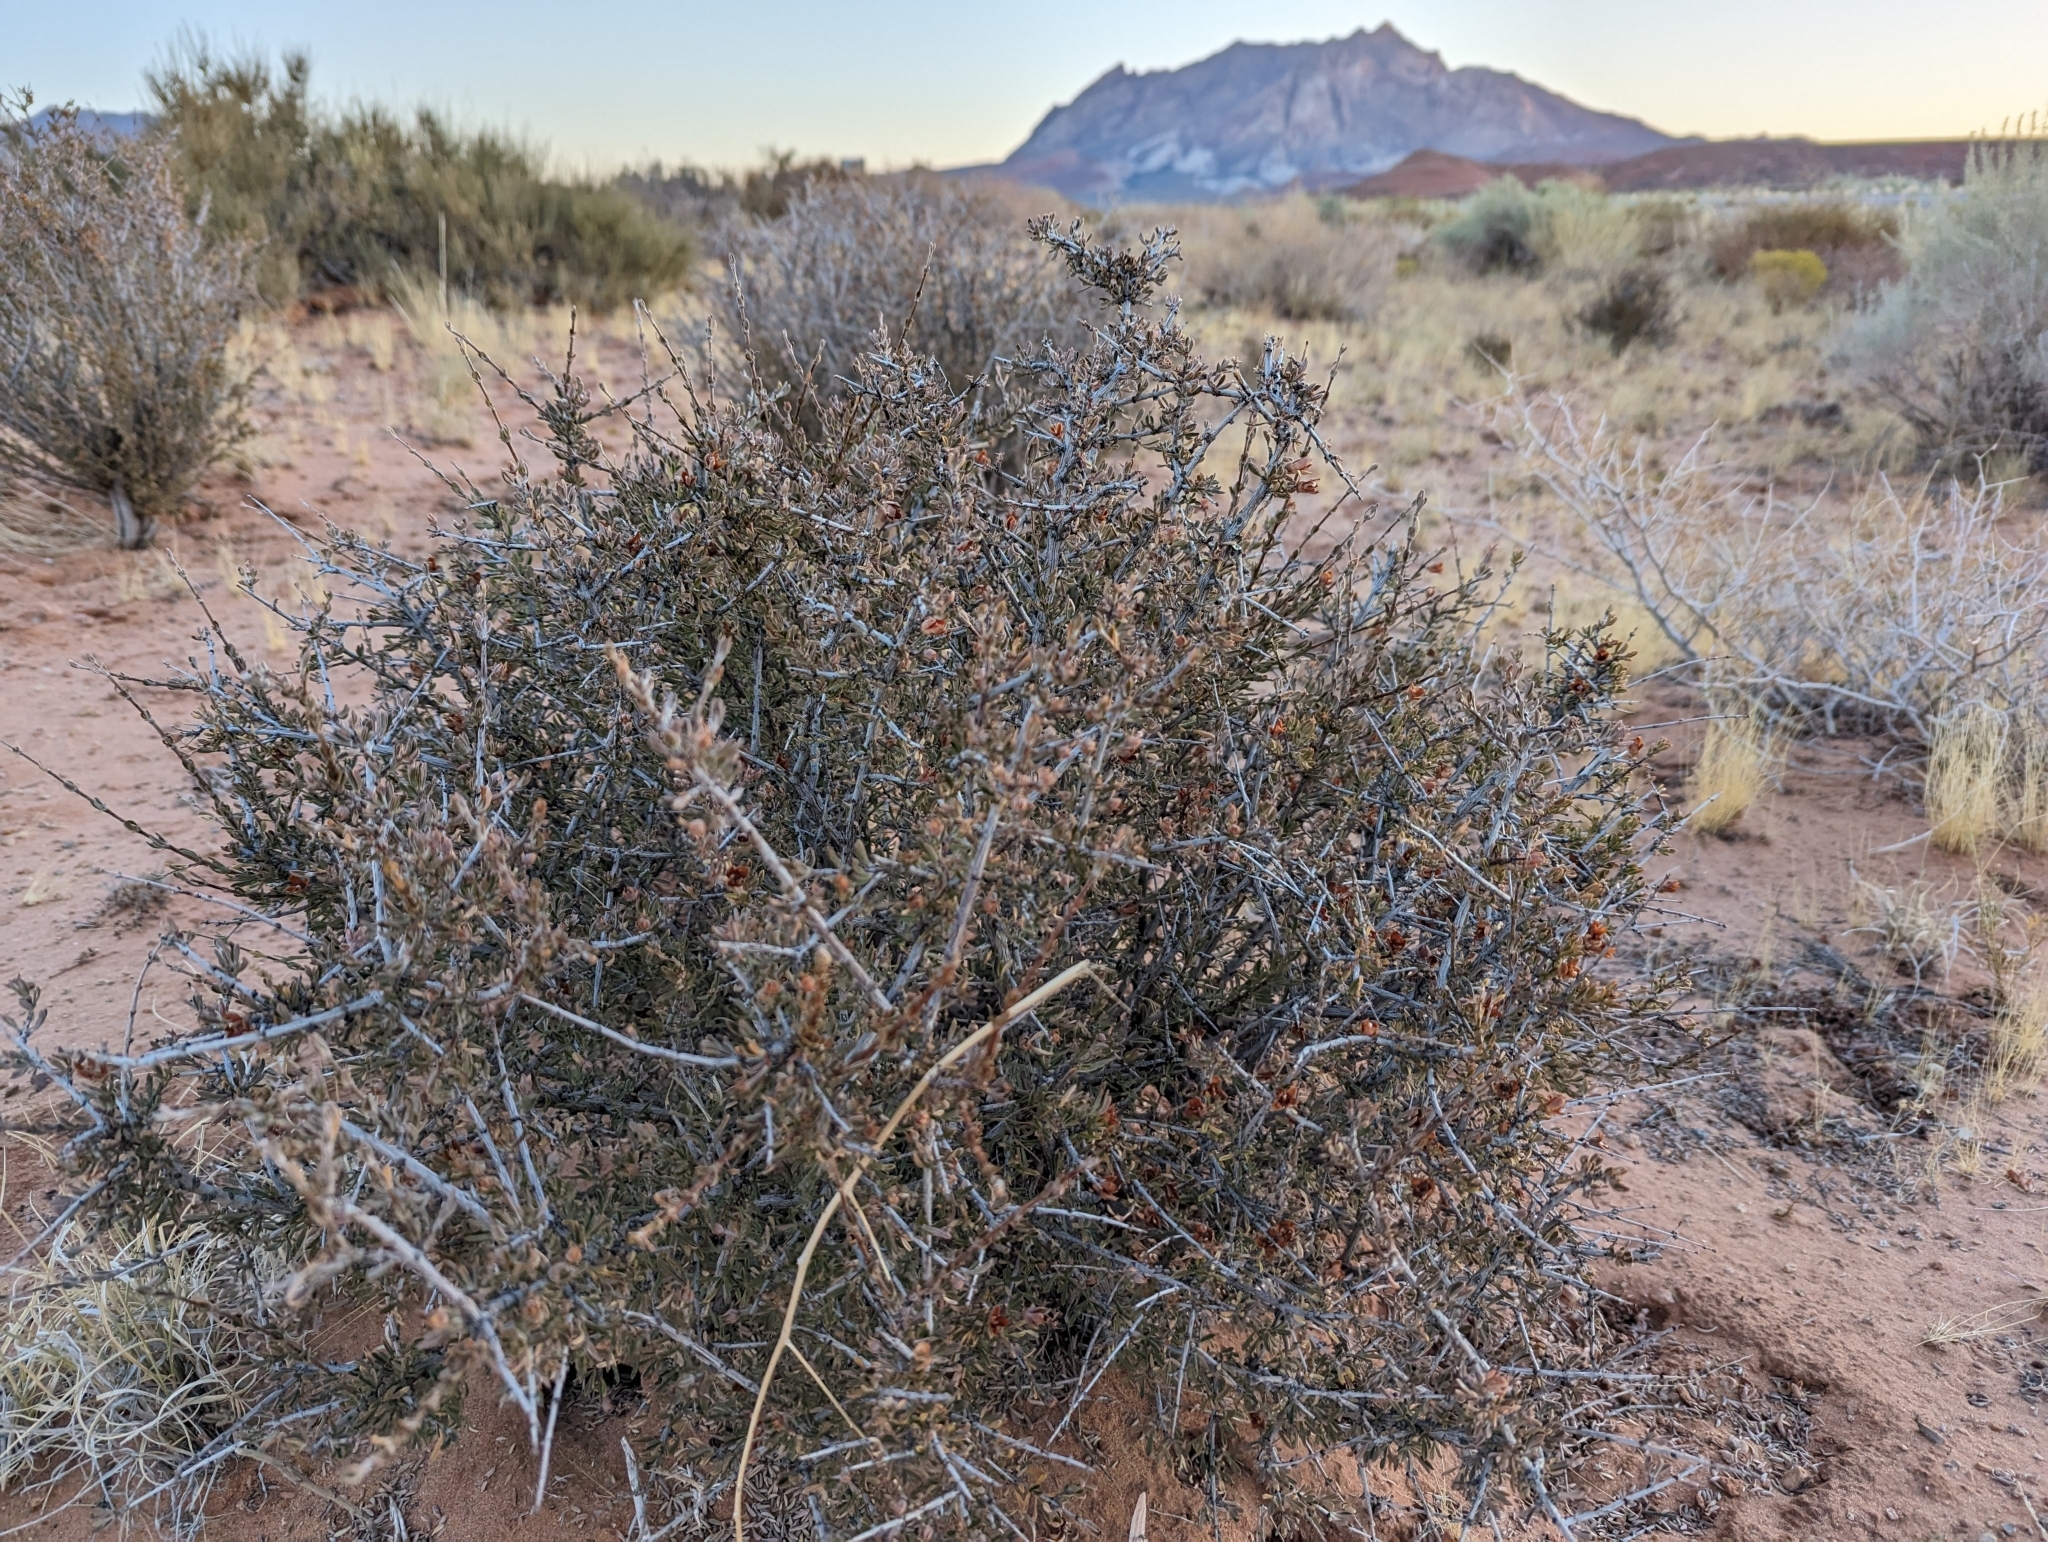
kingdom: Plantae
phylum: Tracheophyta
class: Magnoliopsida
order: Rosales
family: Rosaceae
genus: Coleogyne
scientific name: Coleogyne ramosissima
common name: Blackbrush
